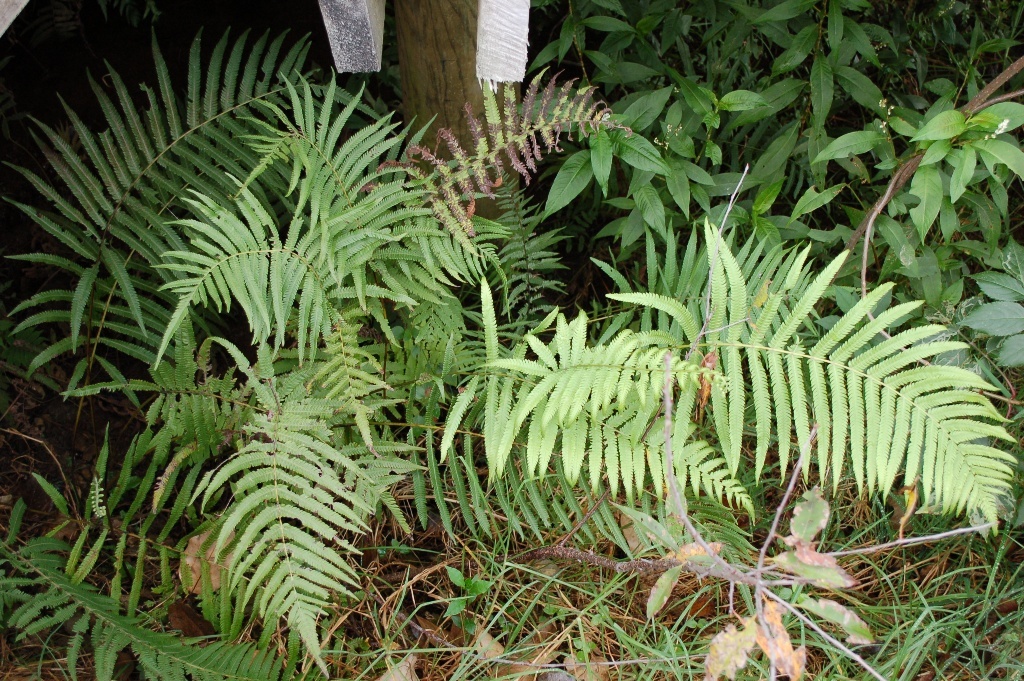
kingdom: Plantae
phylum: Tracheophyta
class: Polypodiopsida
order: Polypodiales
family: Thelypteridaceae
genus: Amauropelta
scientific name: Amauropelta cheilanthoides
